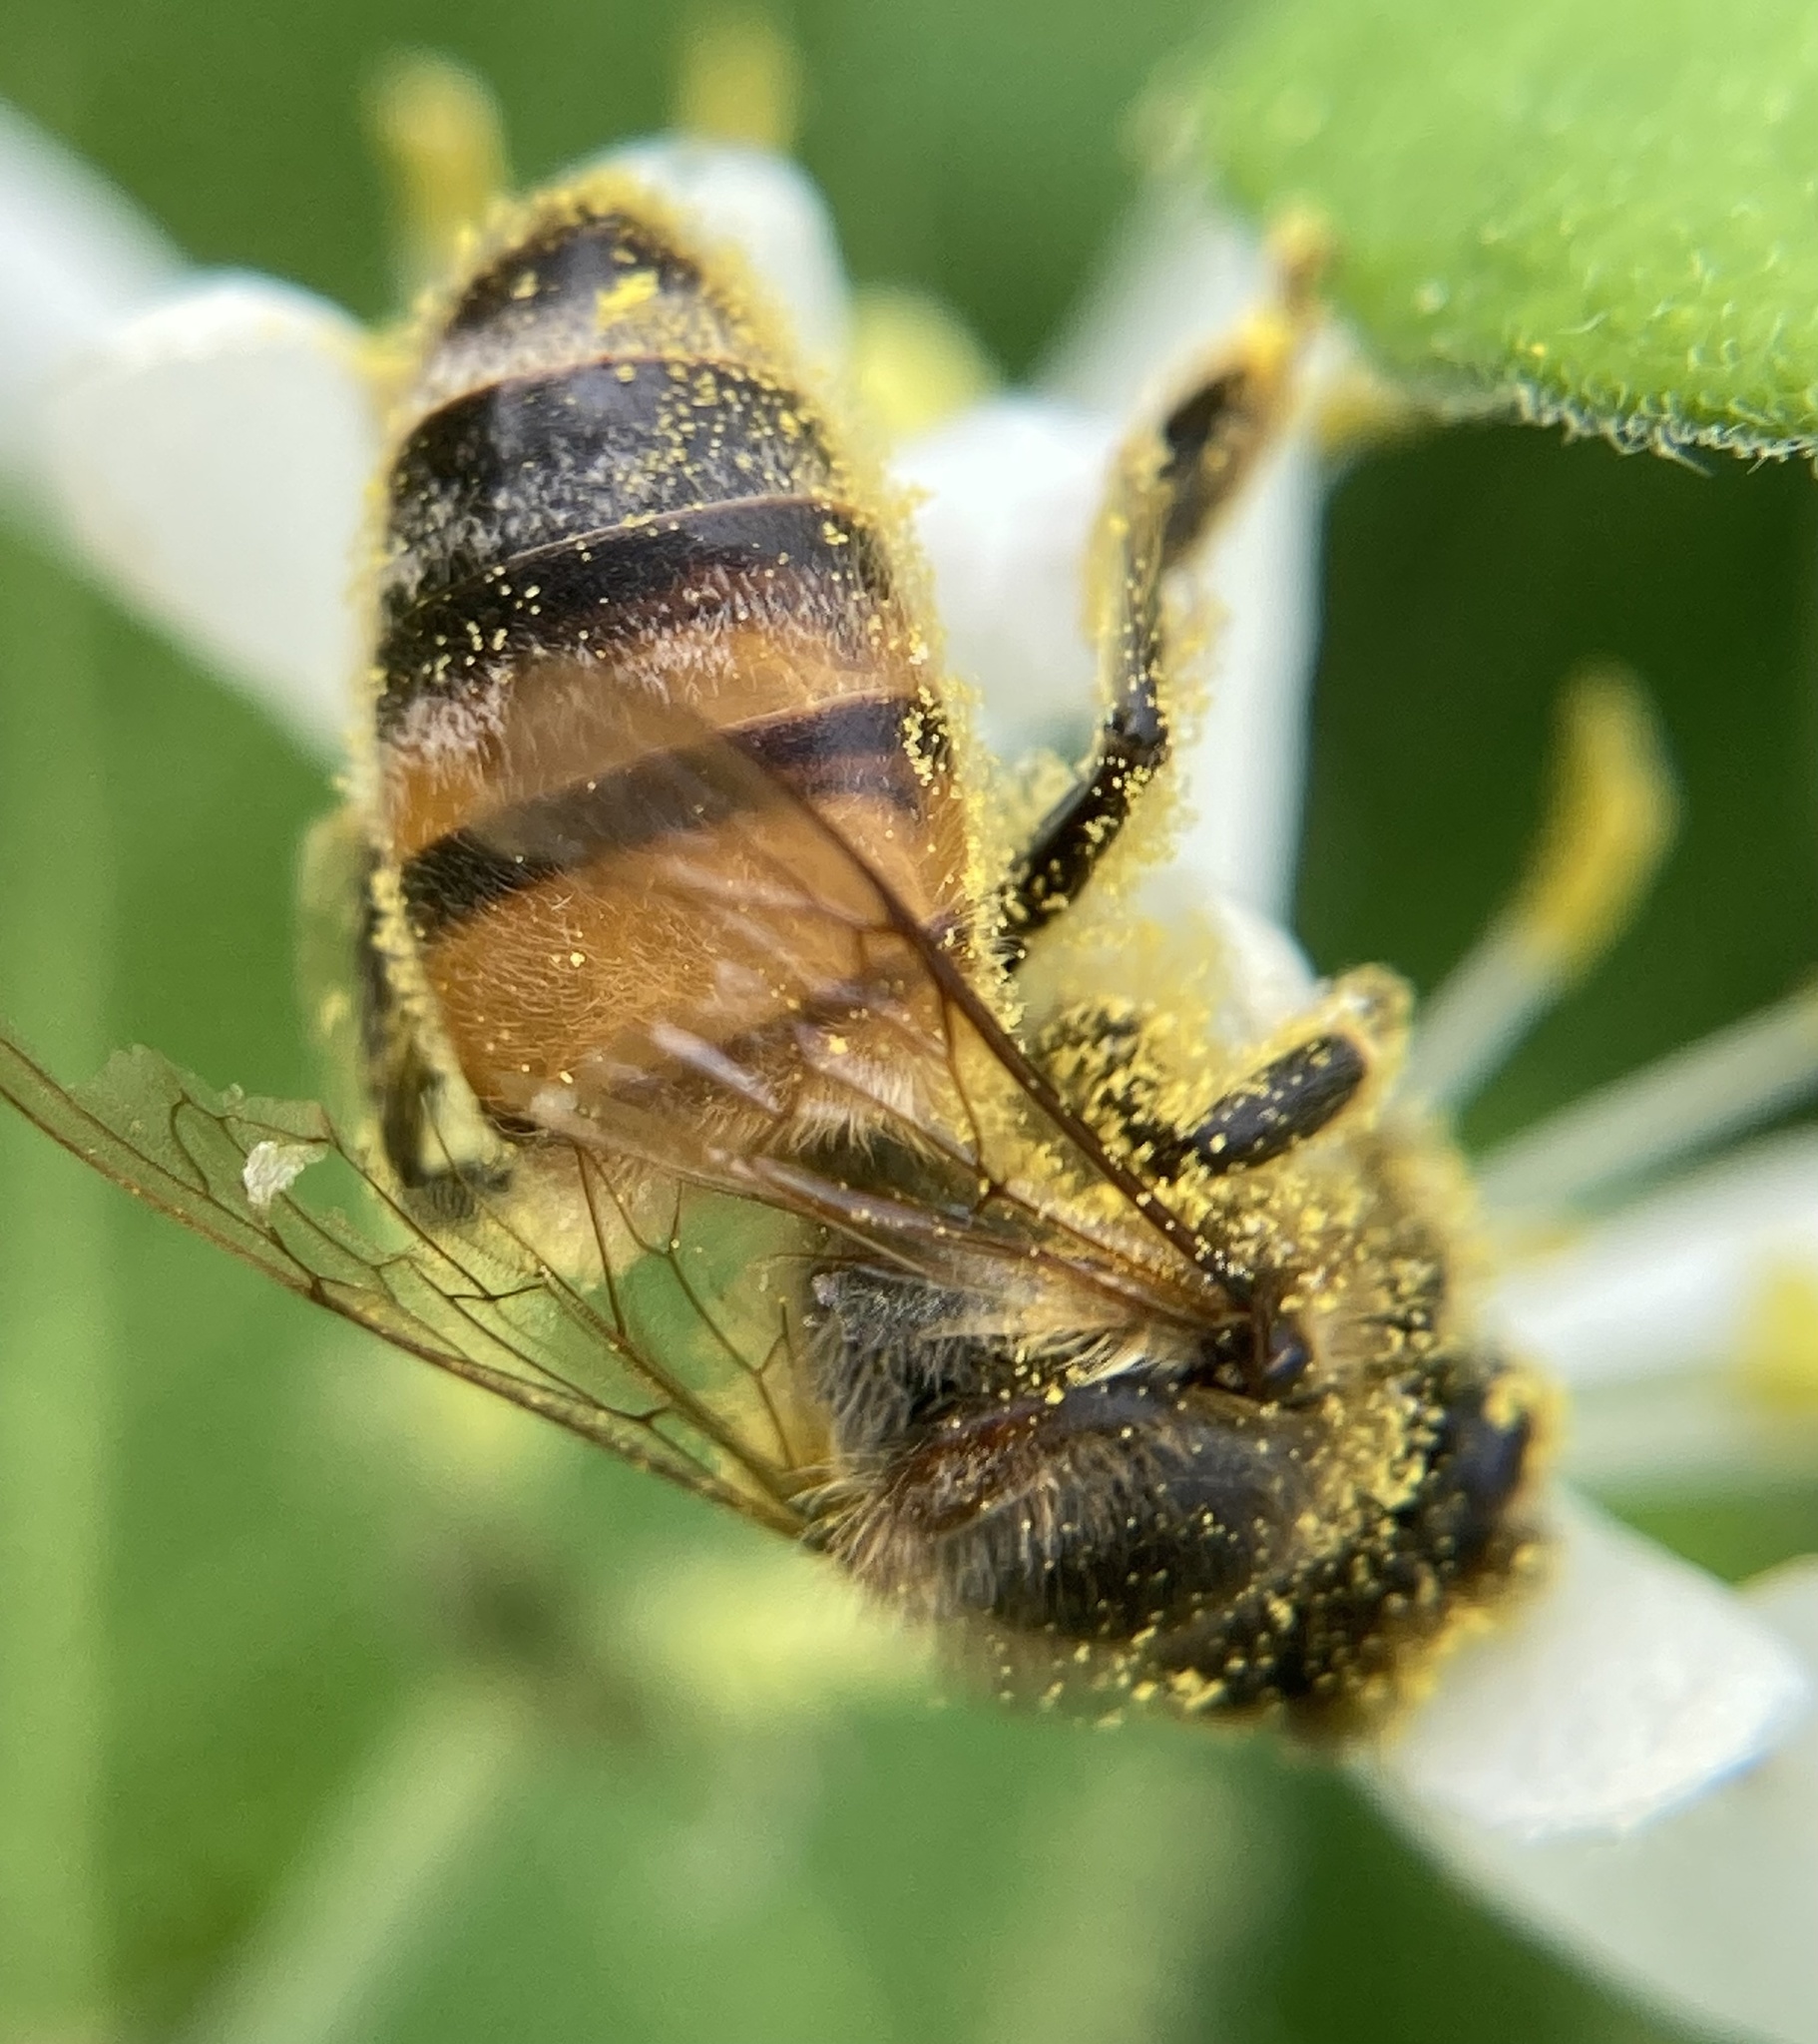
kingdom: Animalia
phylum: Arthropoda
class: Insecta
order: Hymenoptera
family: Apidae
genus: Apis
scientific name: Apis mellifera
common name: Honey bee
